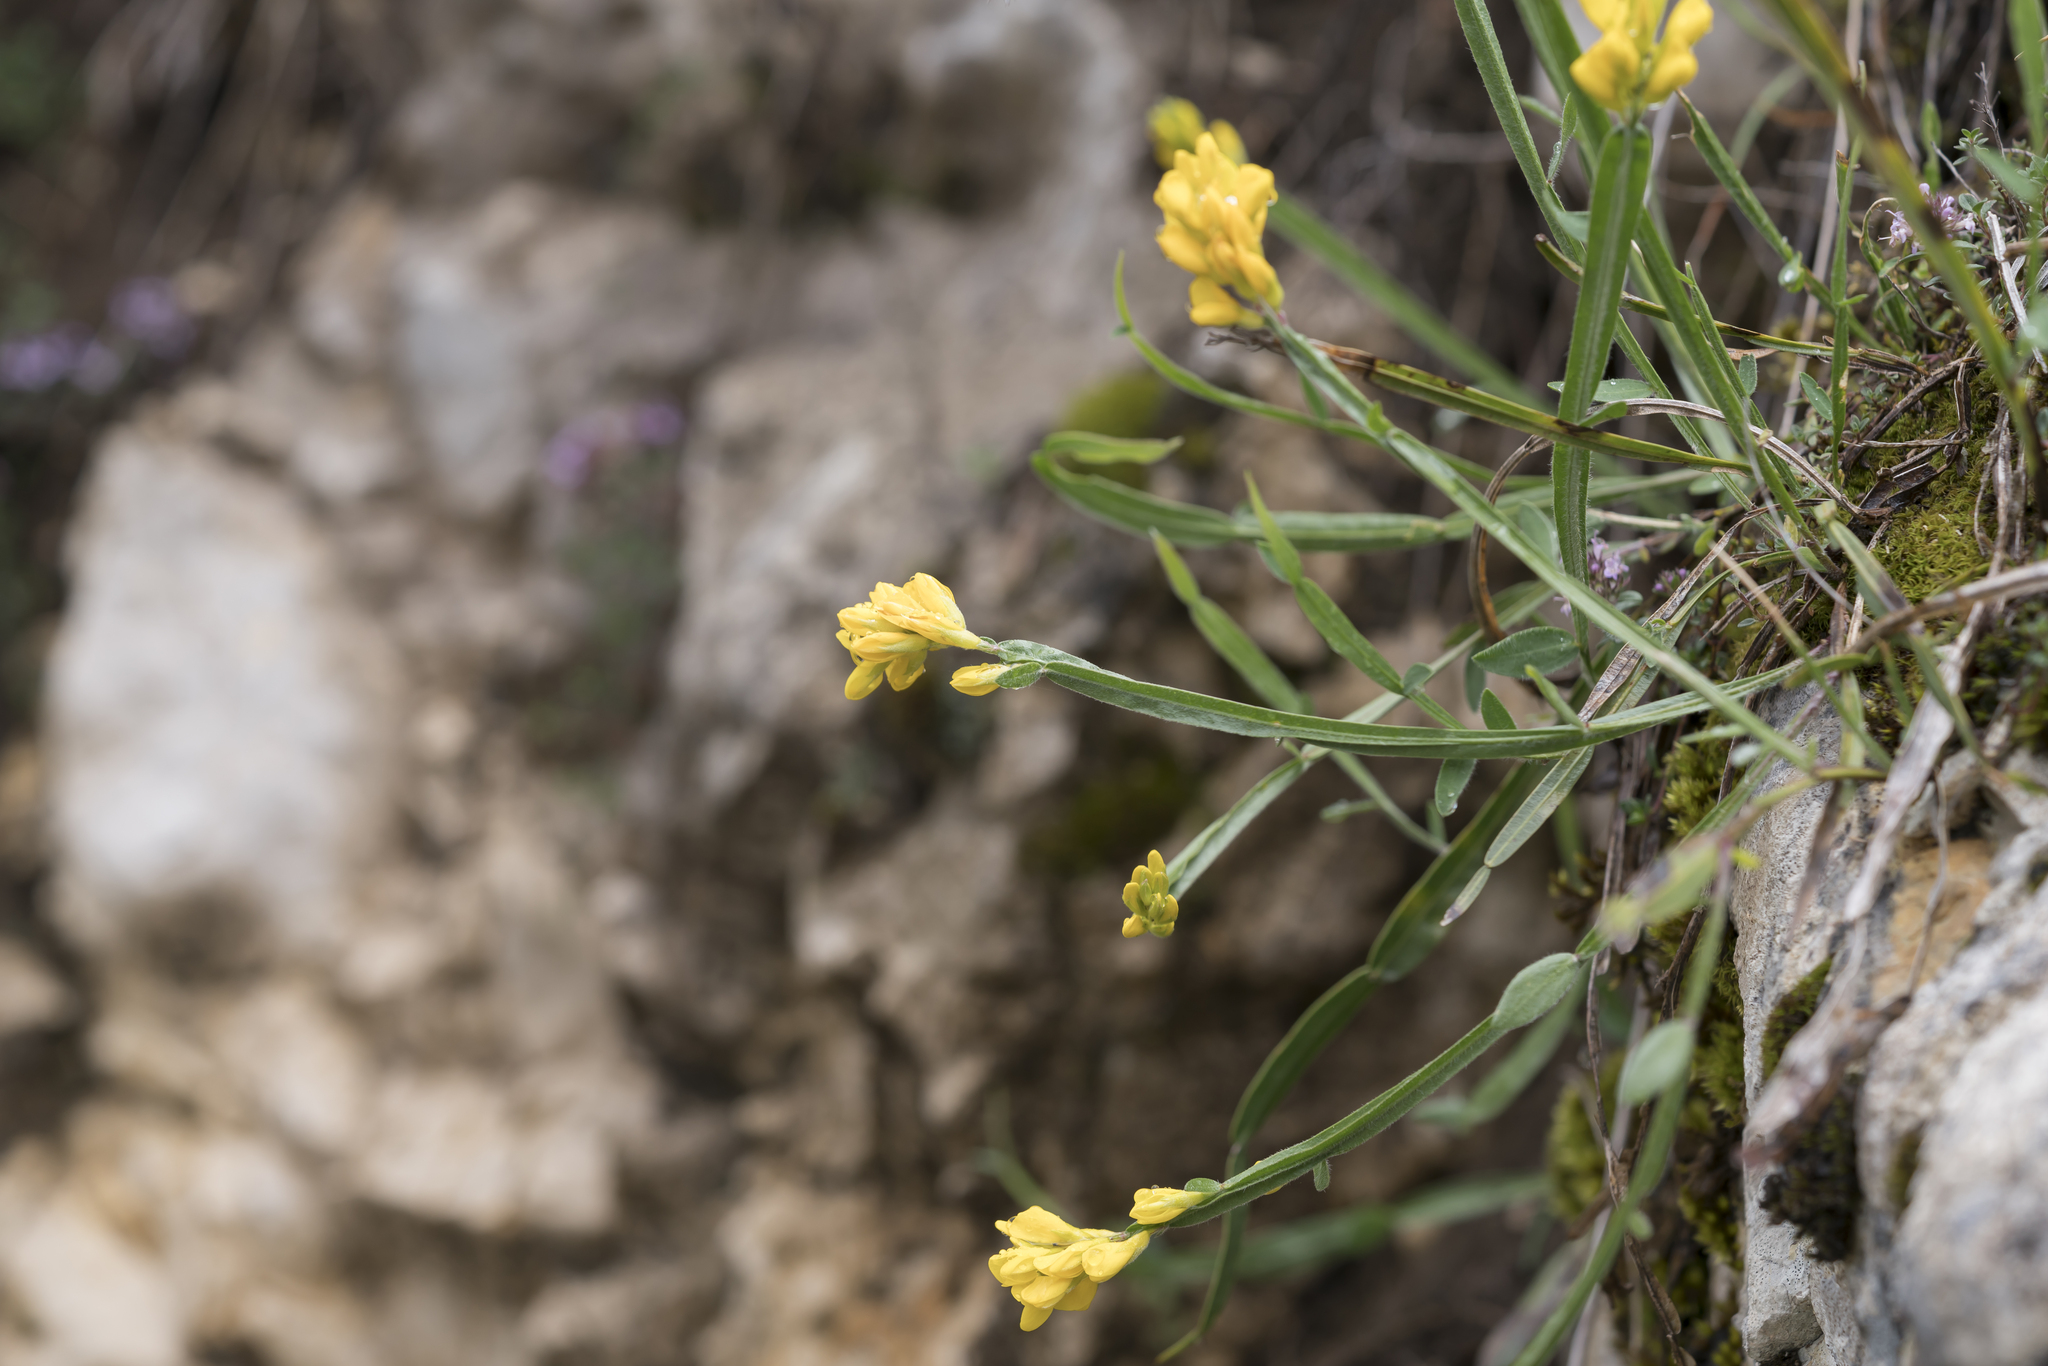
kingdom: Plantae
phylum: Tracheophyta
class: Magnoliopsida
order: Fabales
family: Fabaceae
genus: Genista
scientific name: Genista sagittalis
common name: Winged greenweed
